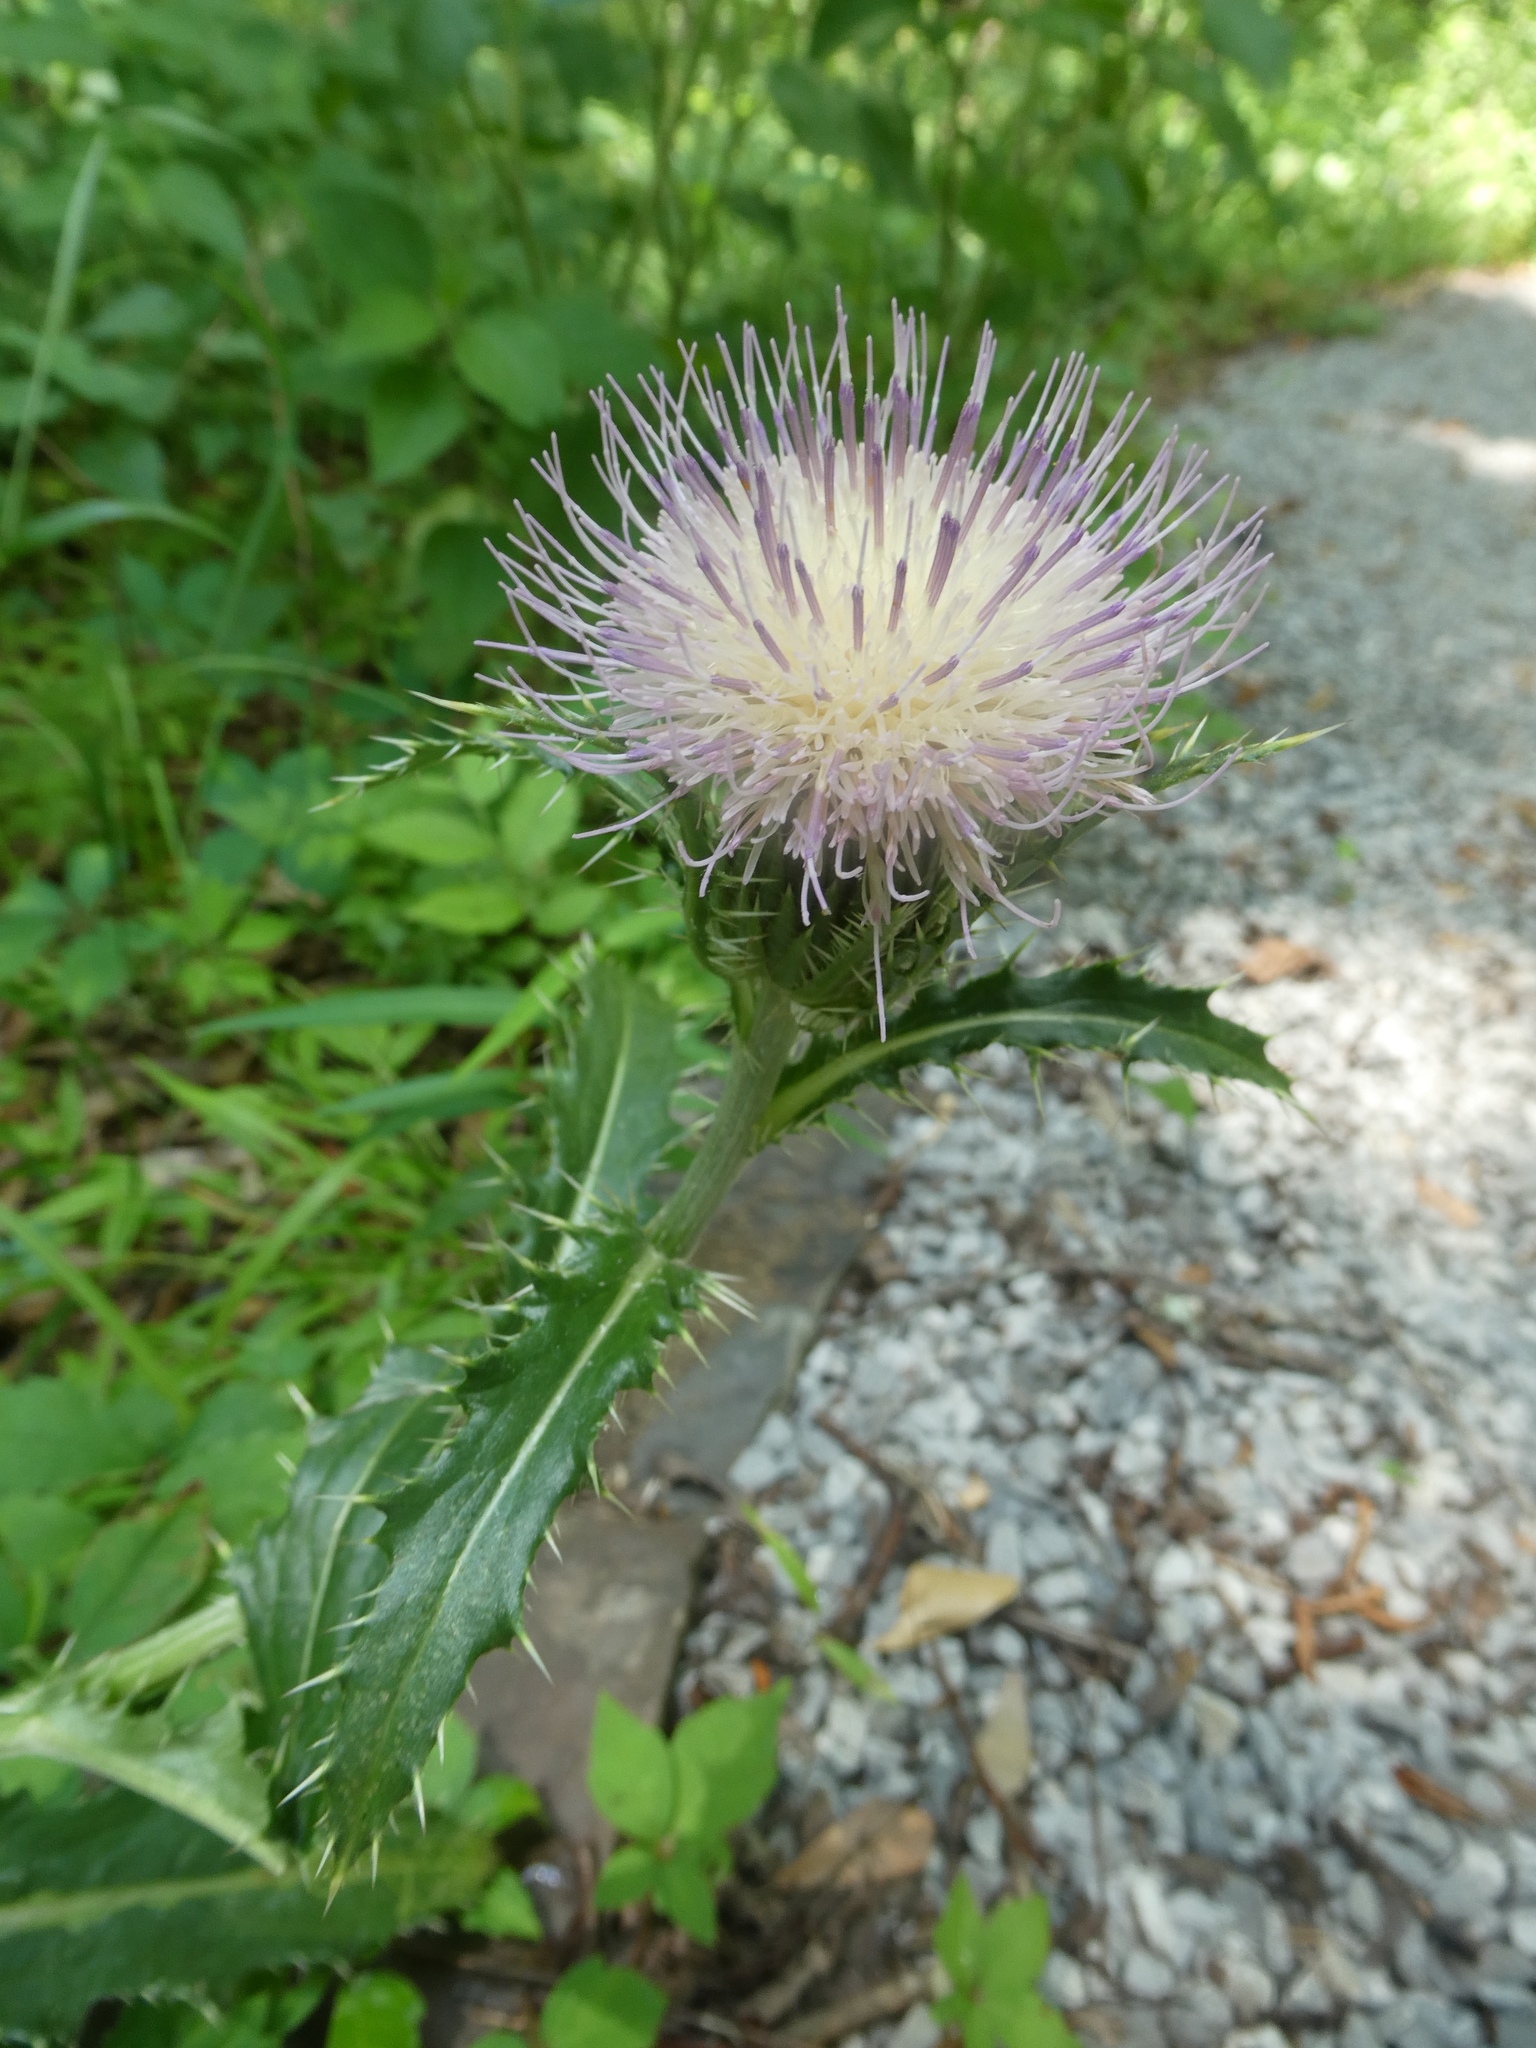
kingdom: Plantae
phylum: Tracheophyta
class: Magnoliopsida
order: Asterales
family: Asteraceae
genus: Cirsium
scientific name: Cirsium horridulum
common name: Bristly thistle
